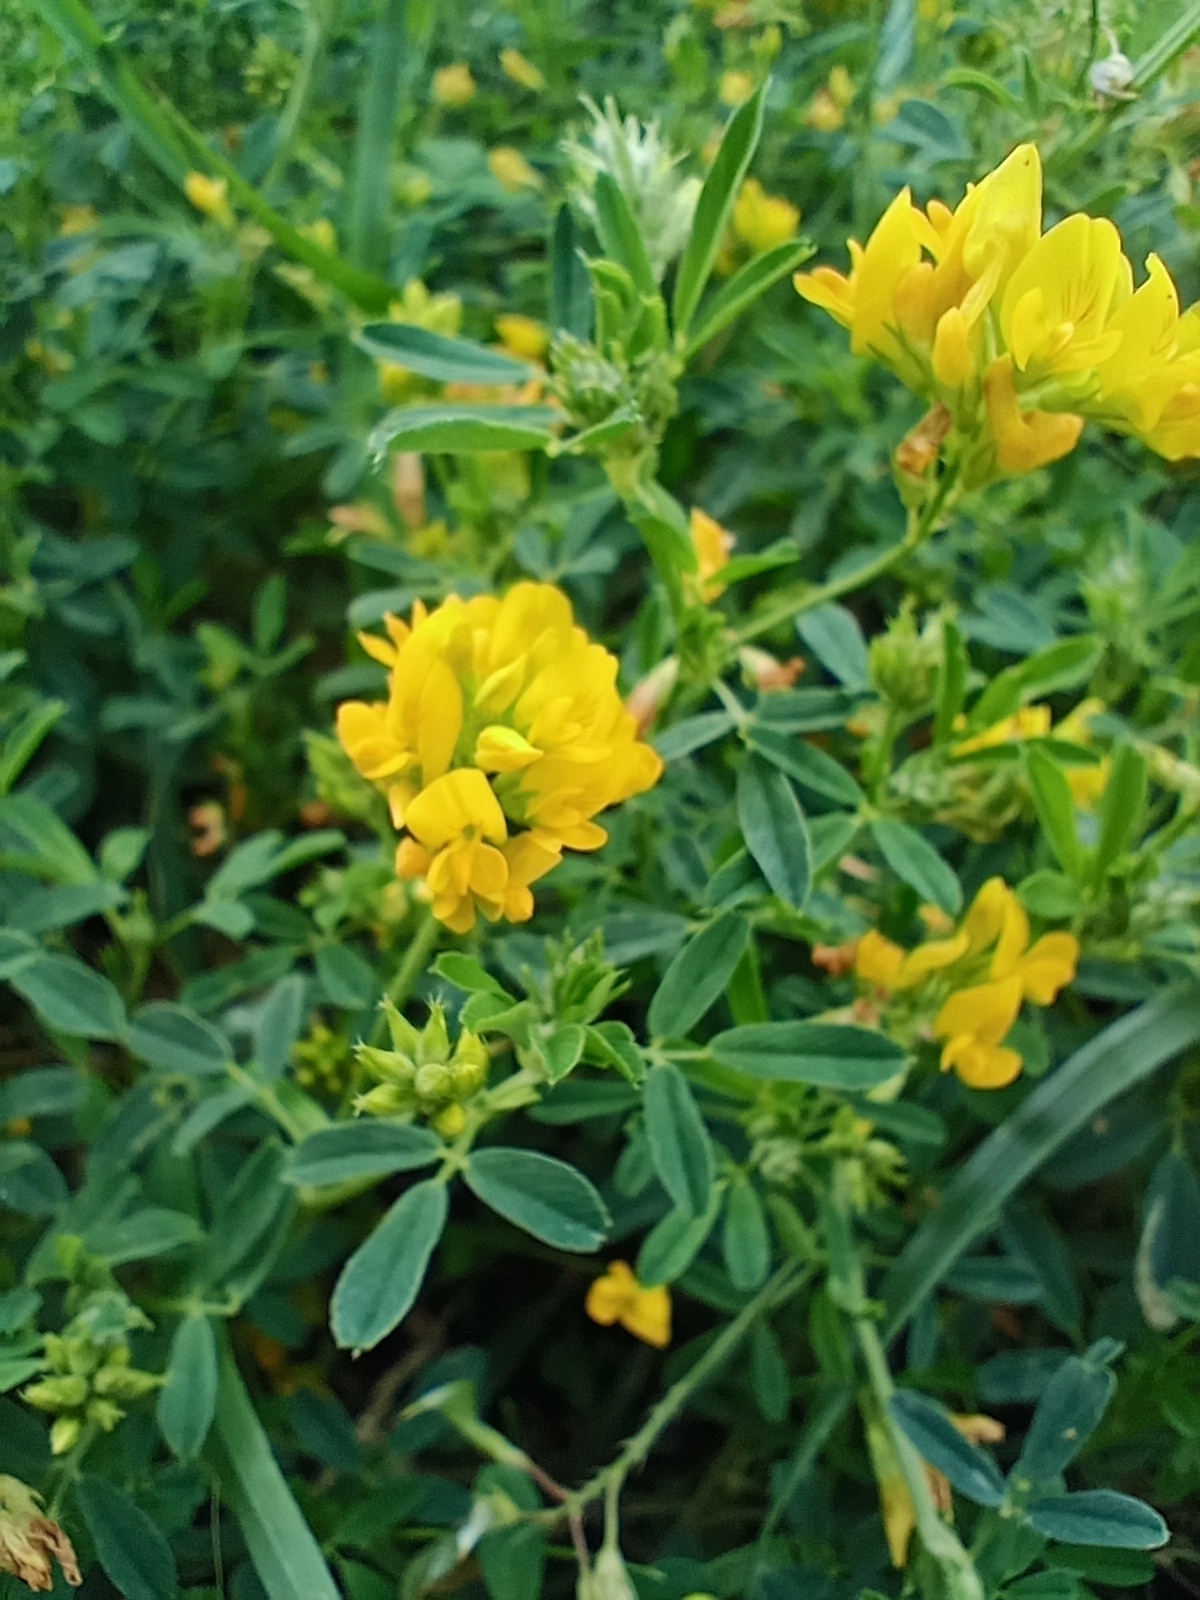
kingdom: Plantae
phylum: Tracheophyta
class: Magnoliopsida
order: Fabales
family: Fabaceae
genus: Medicago
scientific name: Medicago falcata
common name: Sickle medick
